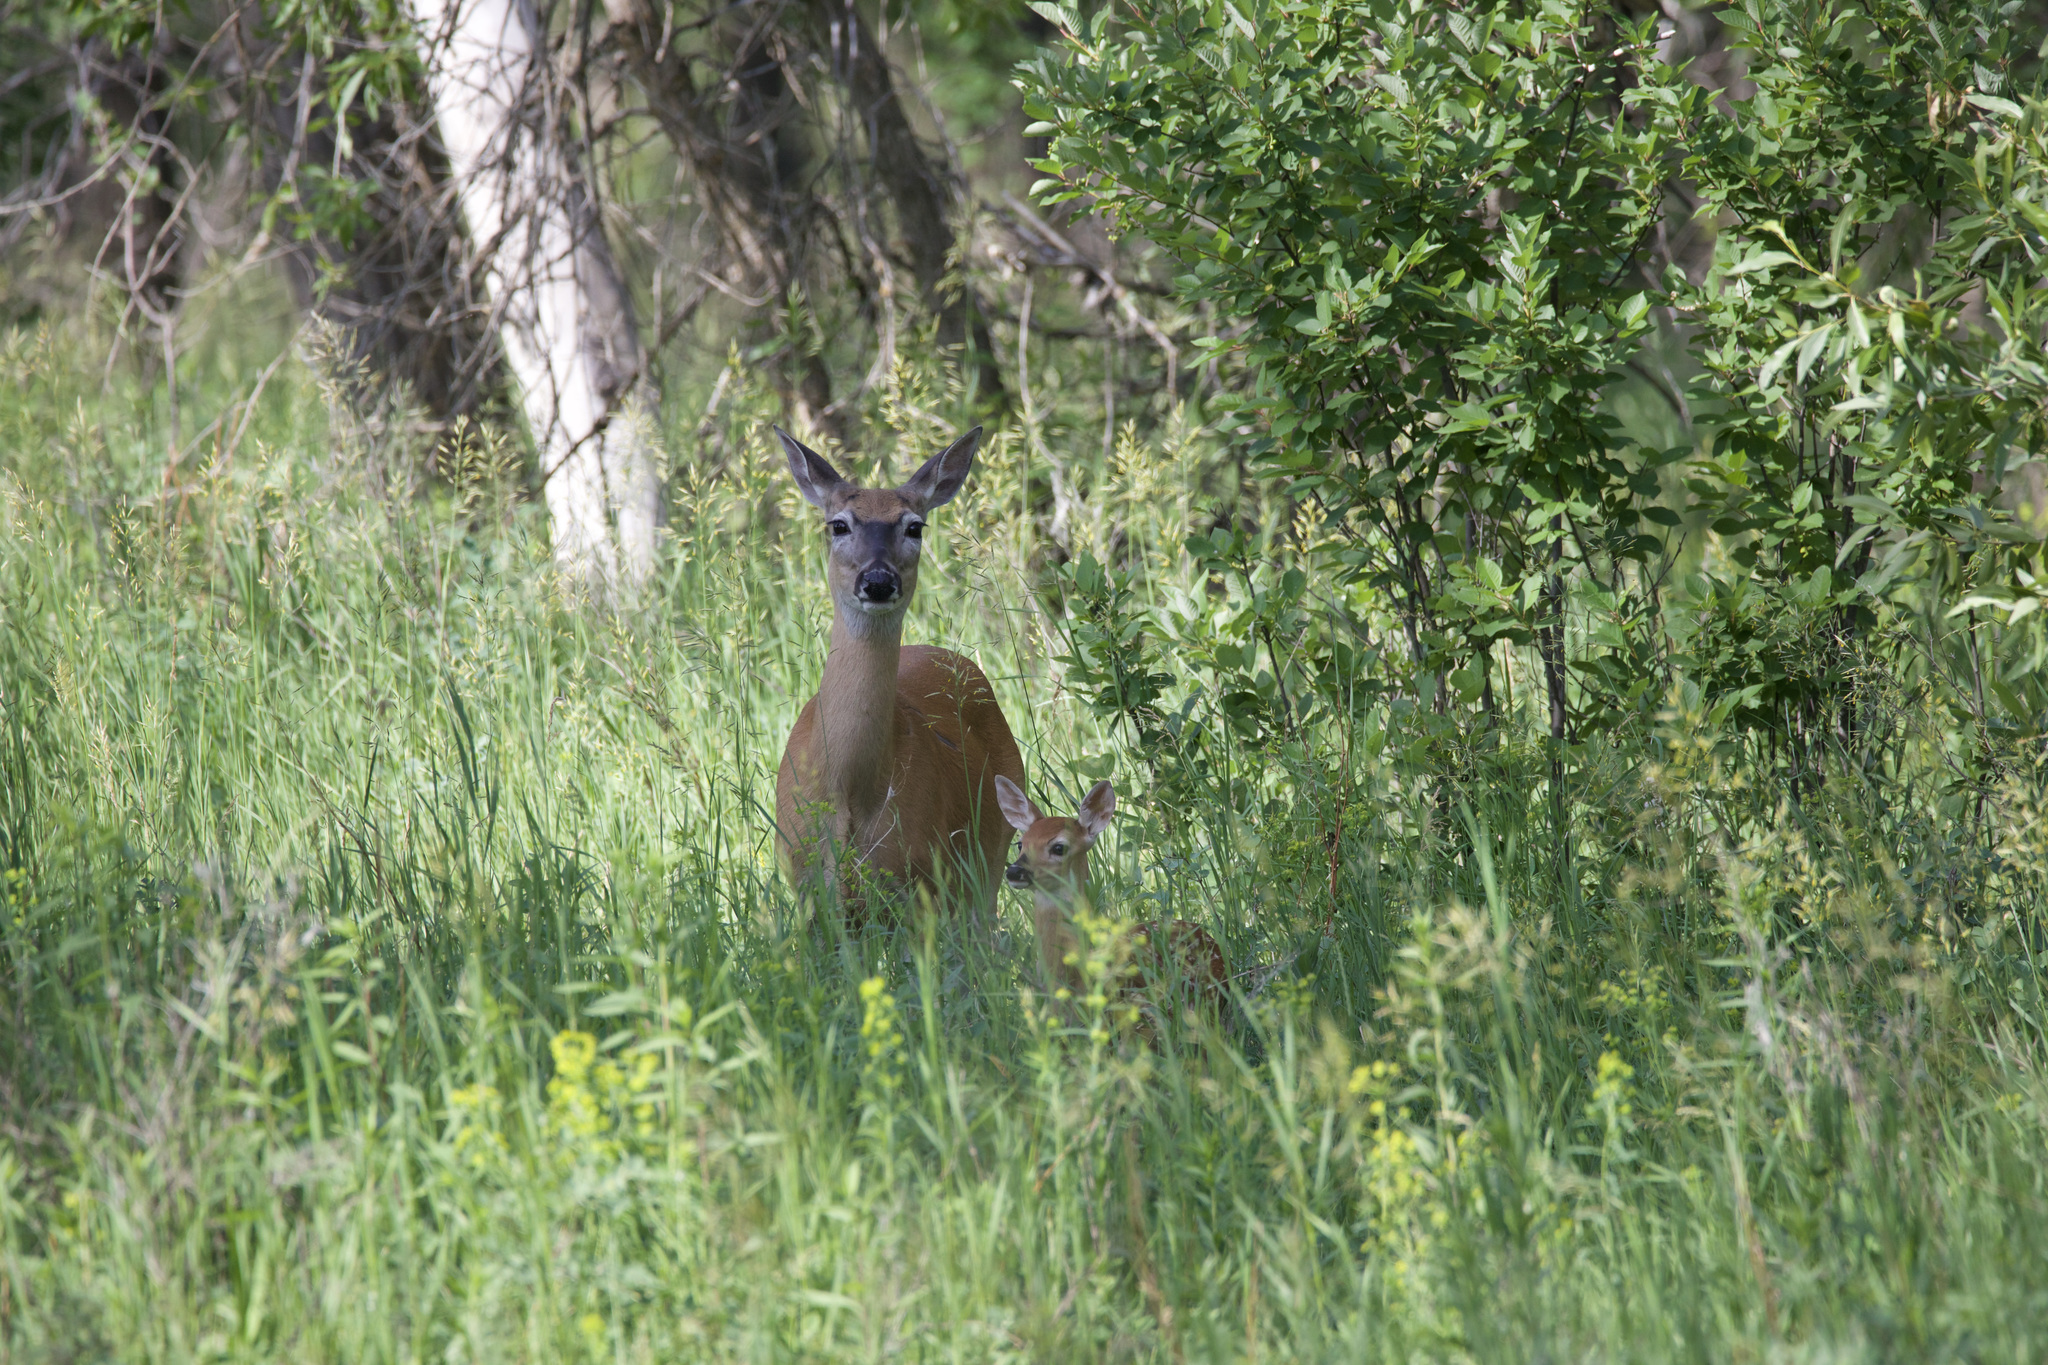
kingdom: Animalia
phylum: Chordata
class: Mammalia
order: Artiodactyla
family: Cervidae
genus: Odocoileus
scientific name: Odocoileus virginianus
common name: White-tailed deer
